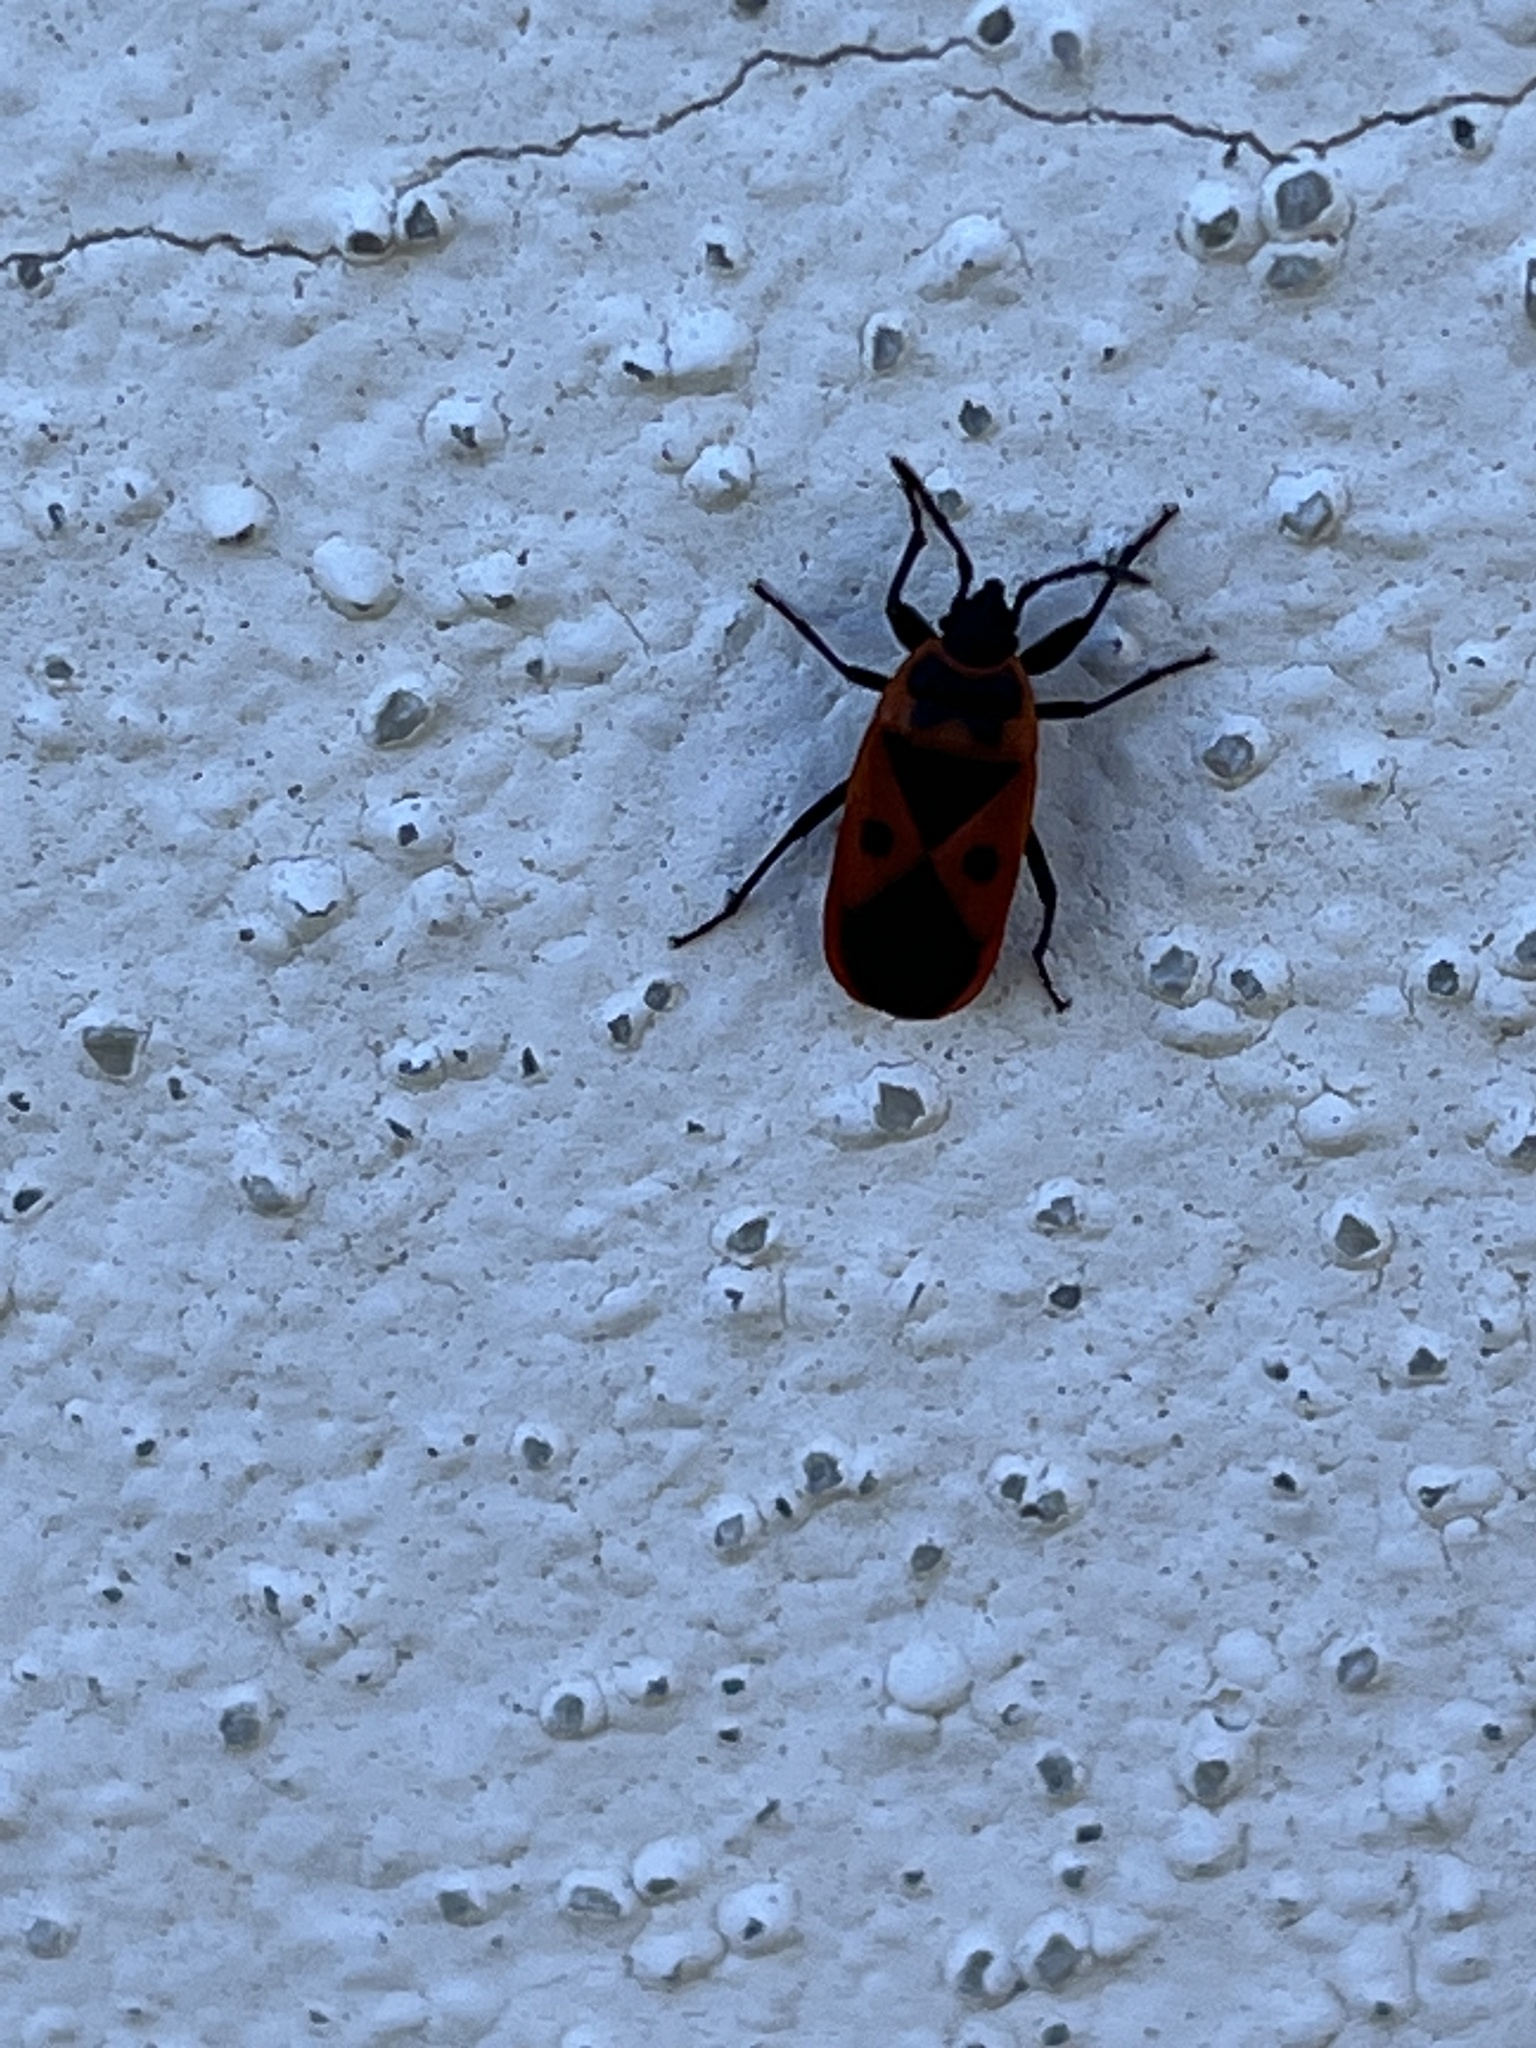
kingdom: Animalia
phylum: Arthropoda
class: Insecta
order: Hemiptera
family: Pyrrhocoridae
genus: Scantius
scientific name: Scantius aegyptius
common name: Red bug
